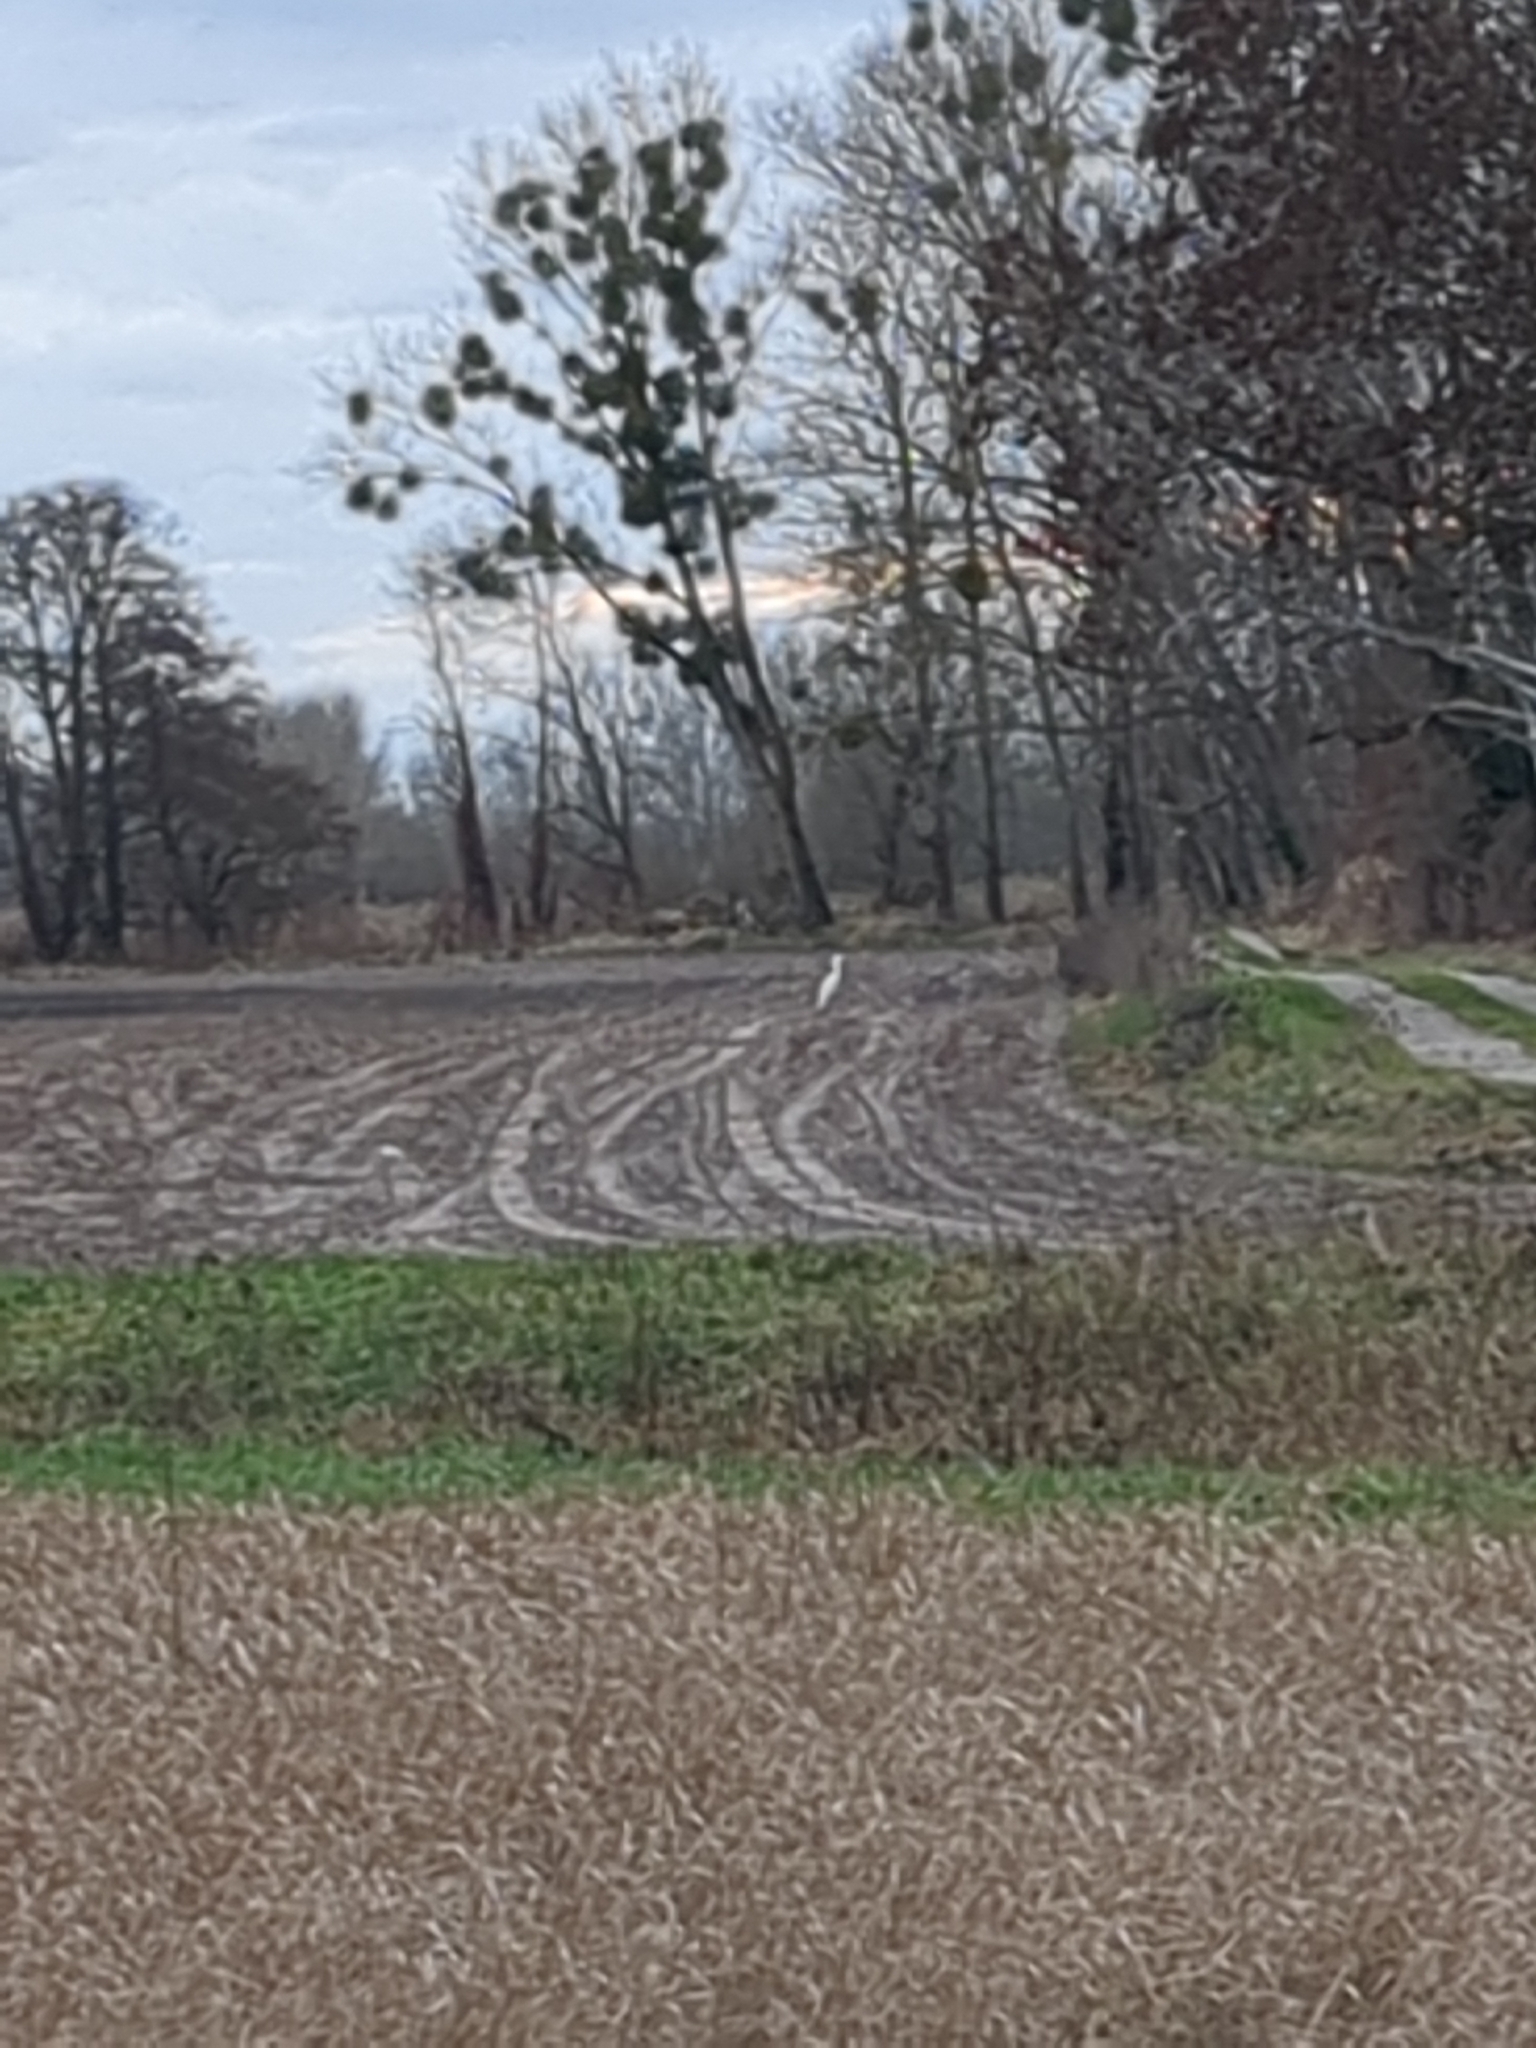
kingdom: Animalia
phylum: Chordata
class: Aves
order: Pelecaniformes
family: Ardeidae
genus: Ardea
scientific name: Ardea alba
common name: Great egret
